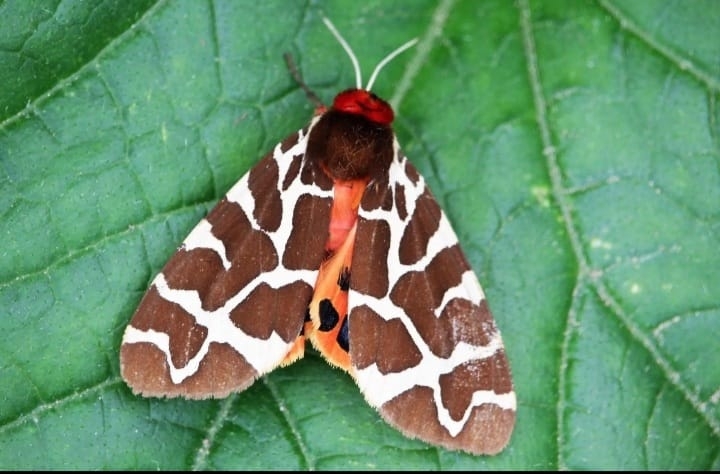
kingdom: Animalia
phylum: Arthropoda
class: Insecta
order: Lepidoptera
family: Erebidae
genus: Arctia
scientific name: Arctia caja
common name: Garden tiger
